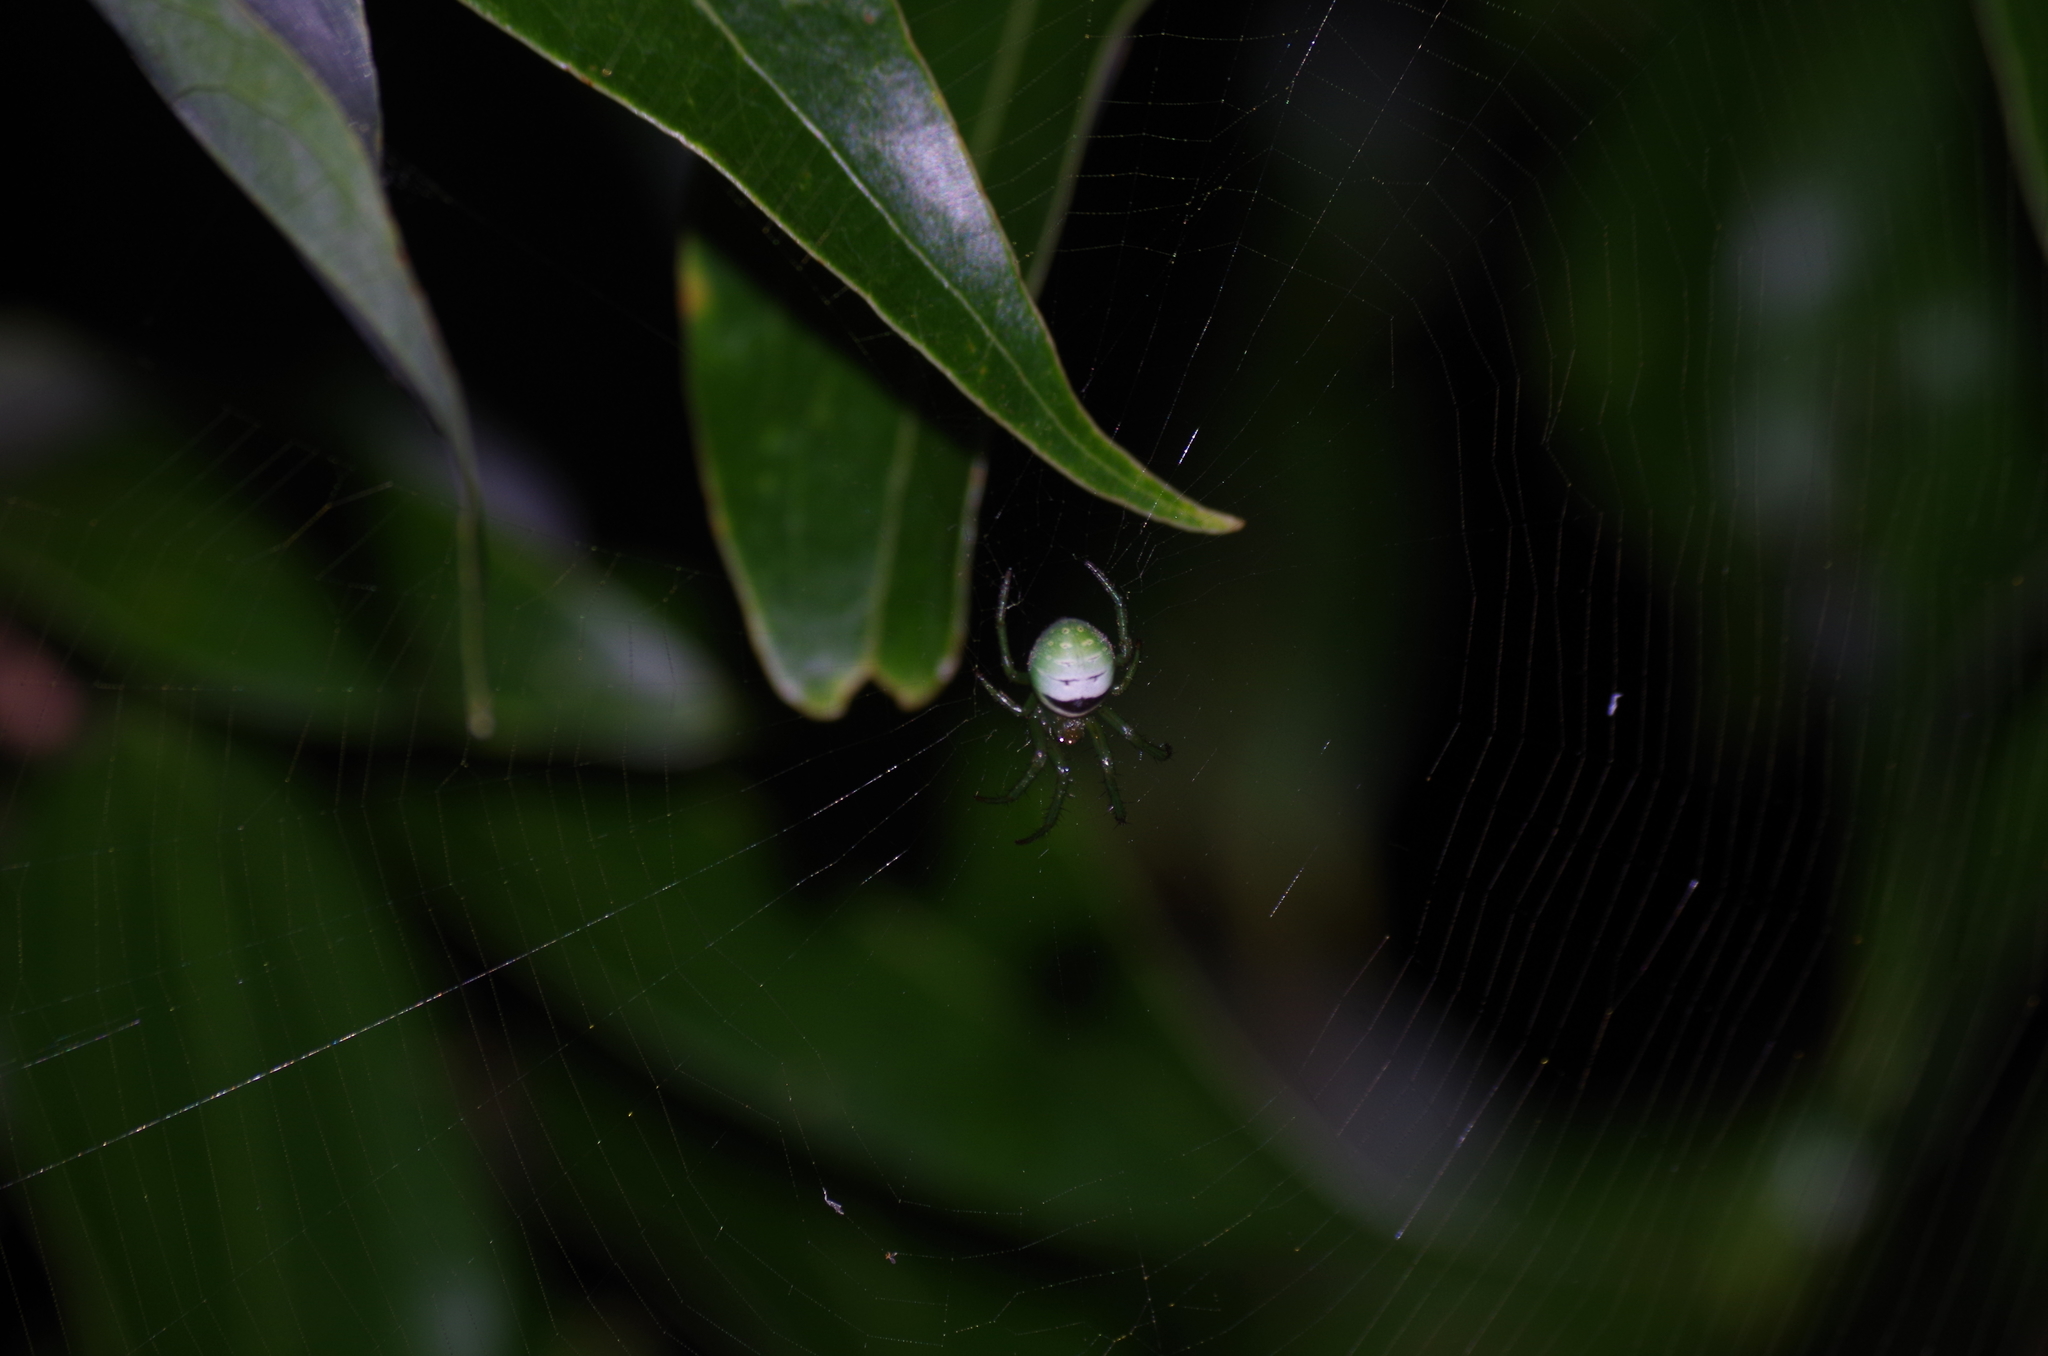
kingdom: Animalia
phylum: Arthropoda
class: Arachnida
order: Araneae
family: Araneidae
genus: Aoaraneus
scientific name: Aoaraneus amabilis
